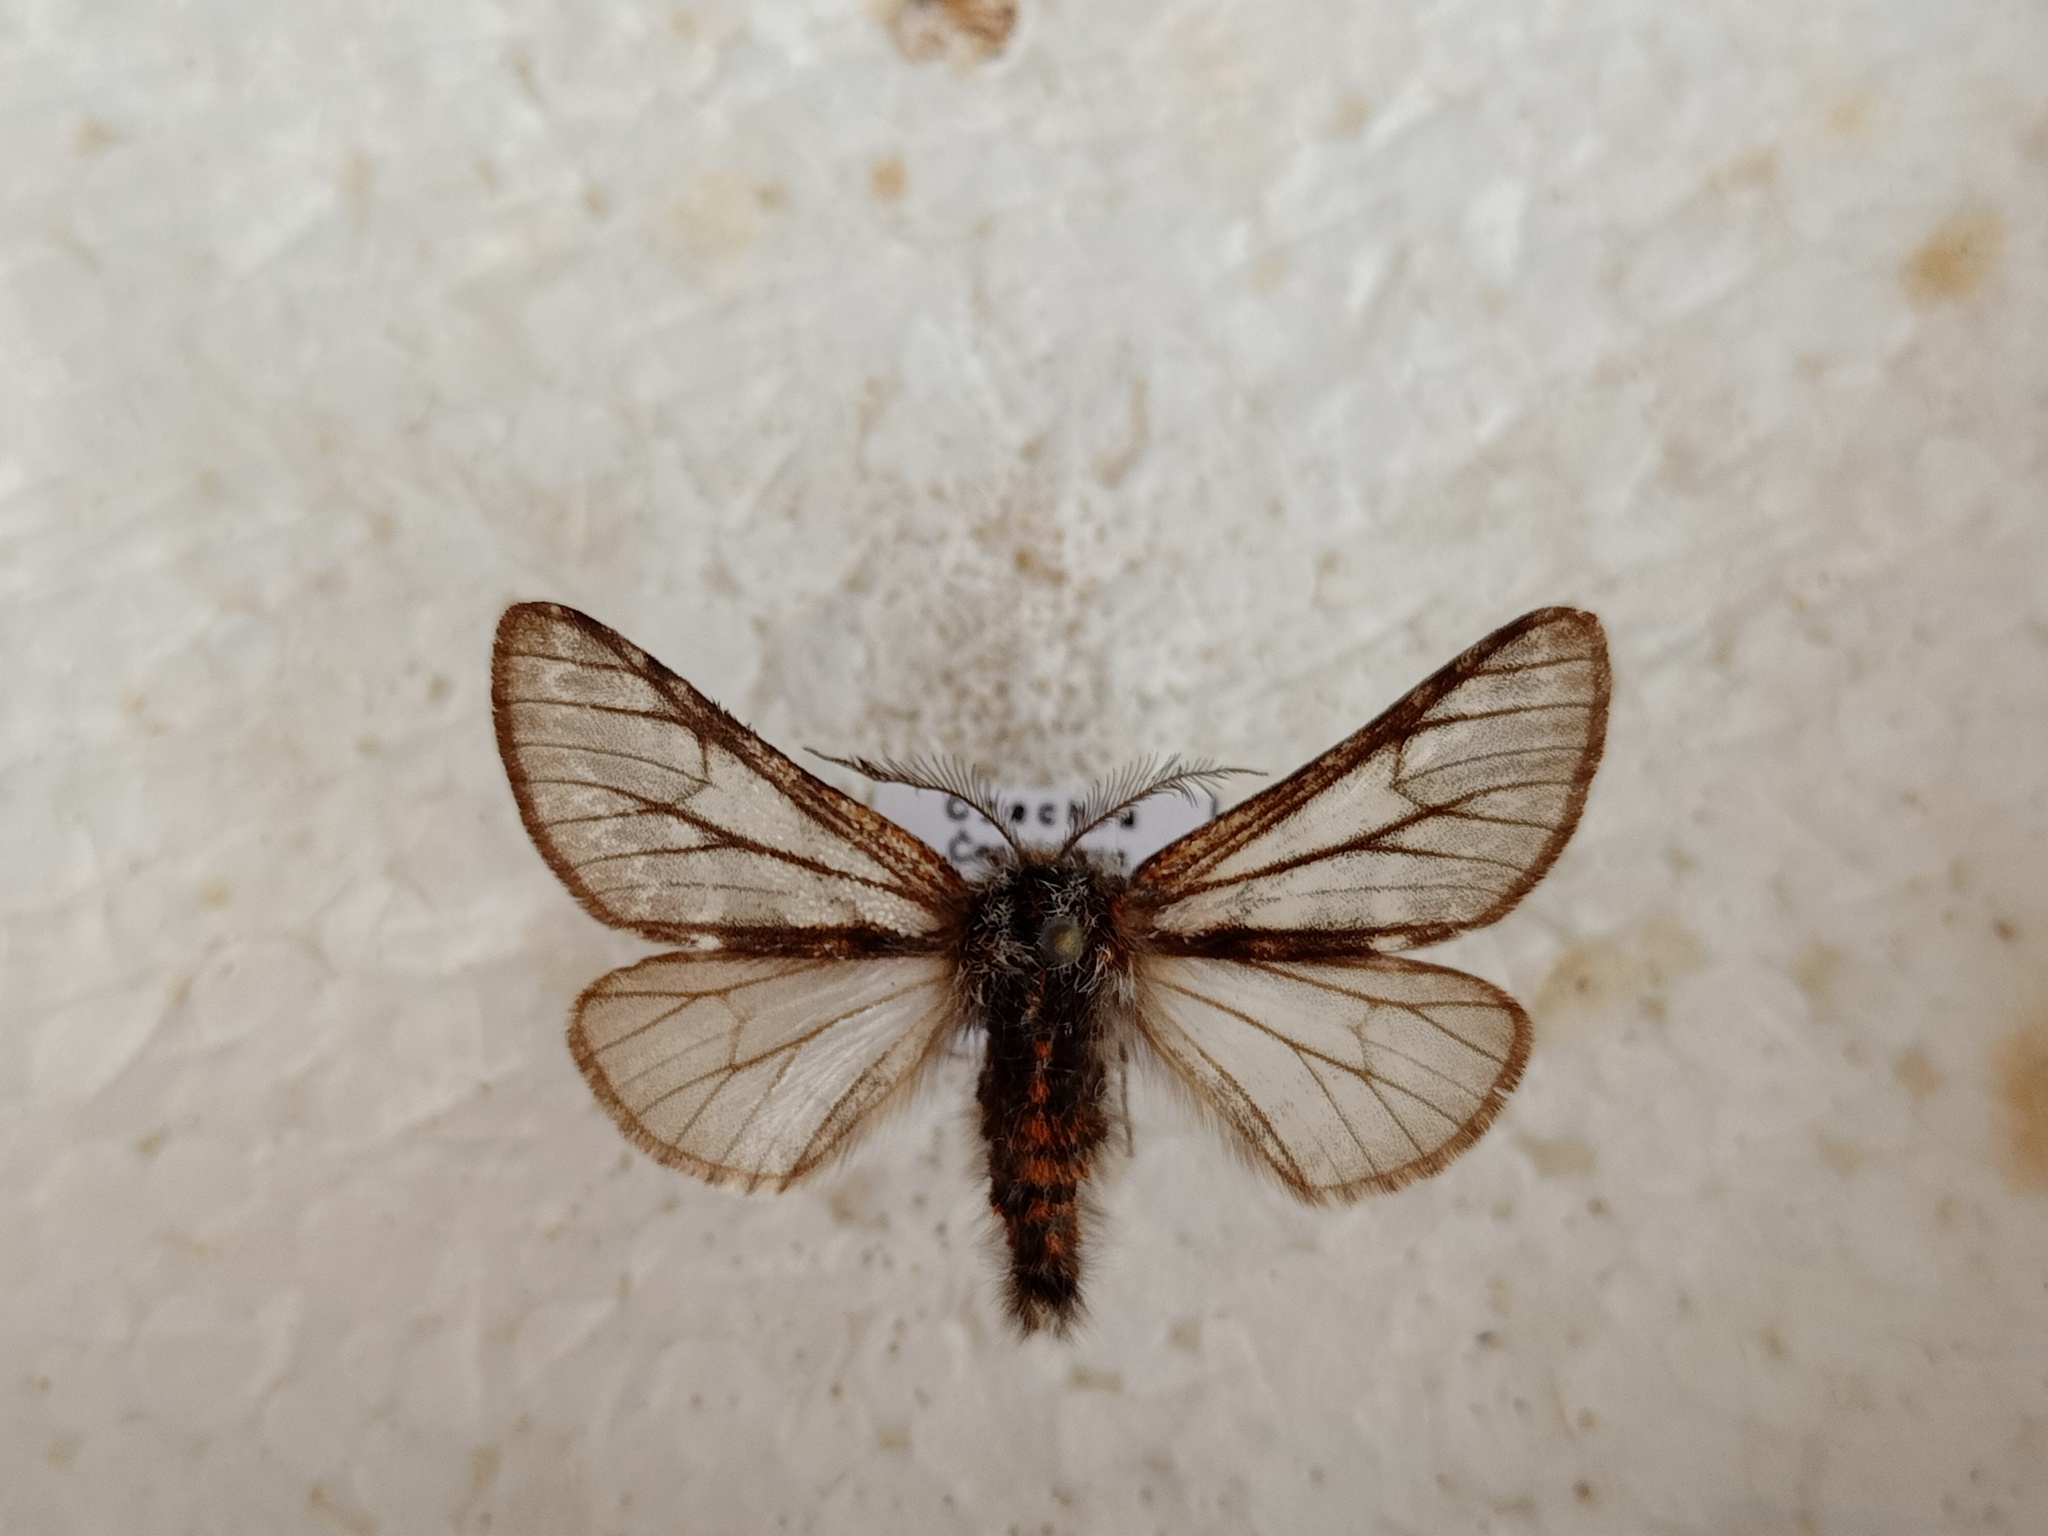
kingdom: Animalia
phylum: Arthropoda
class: Insecta
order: Lepidoptera
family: Geometridae
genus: Lycia
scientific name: Lycia isabellae
